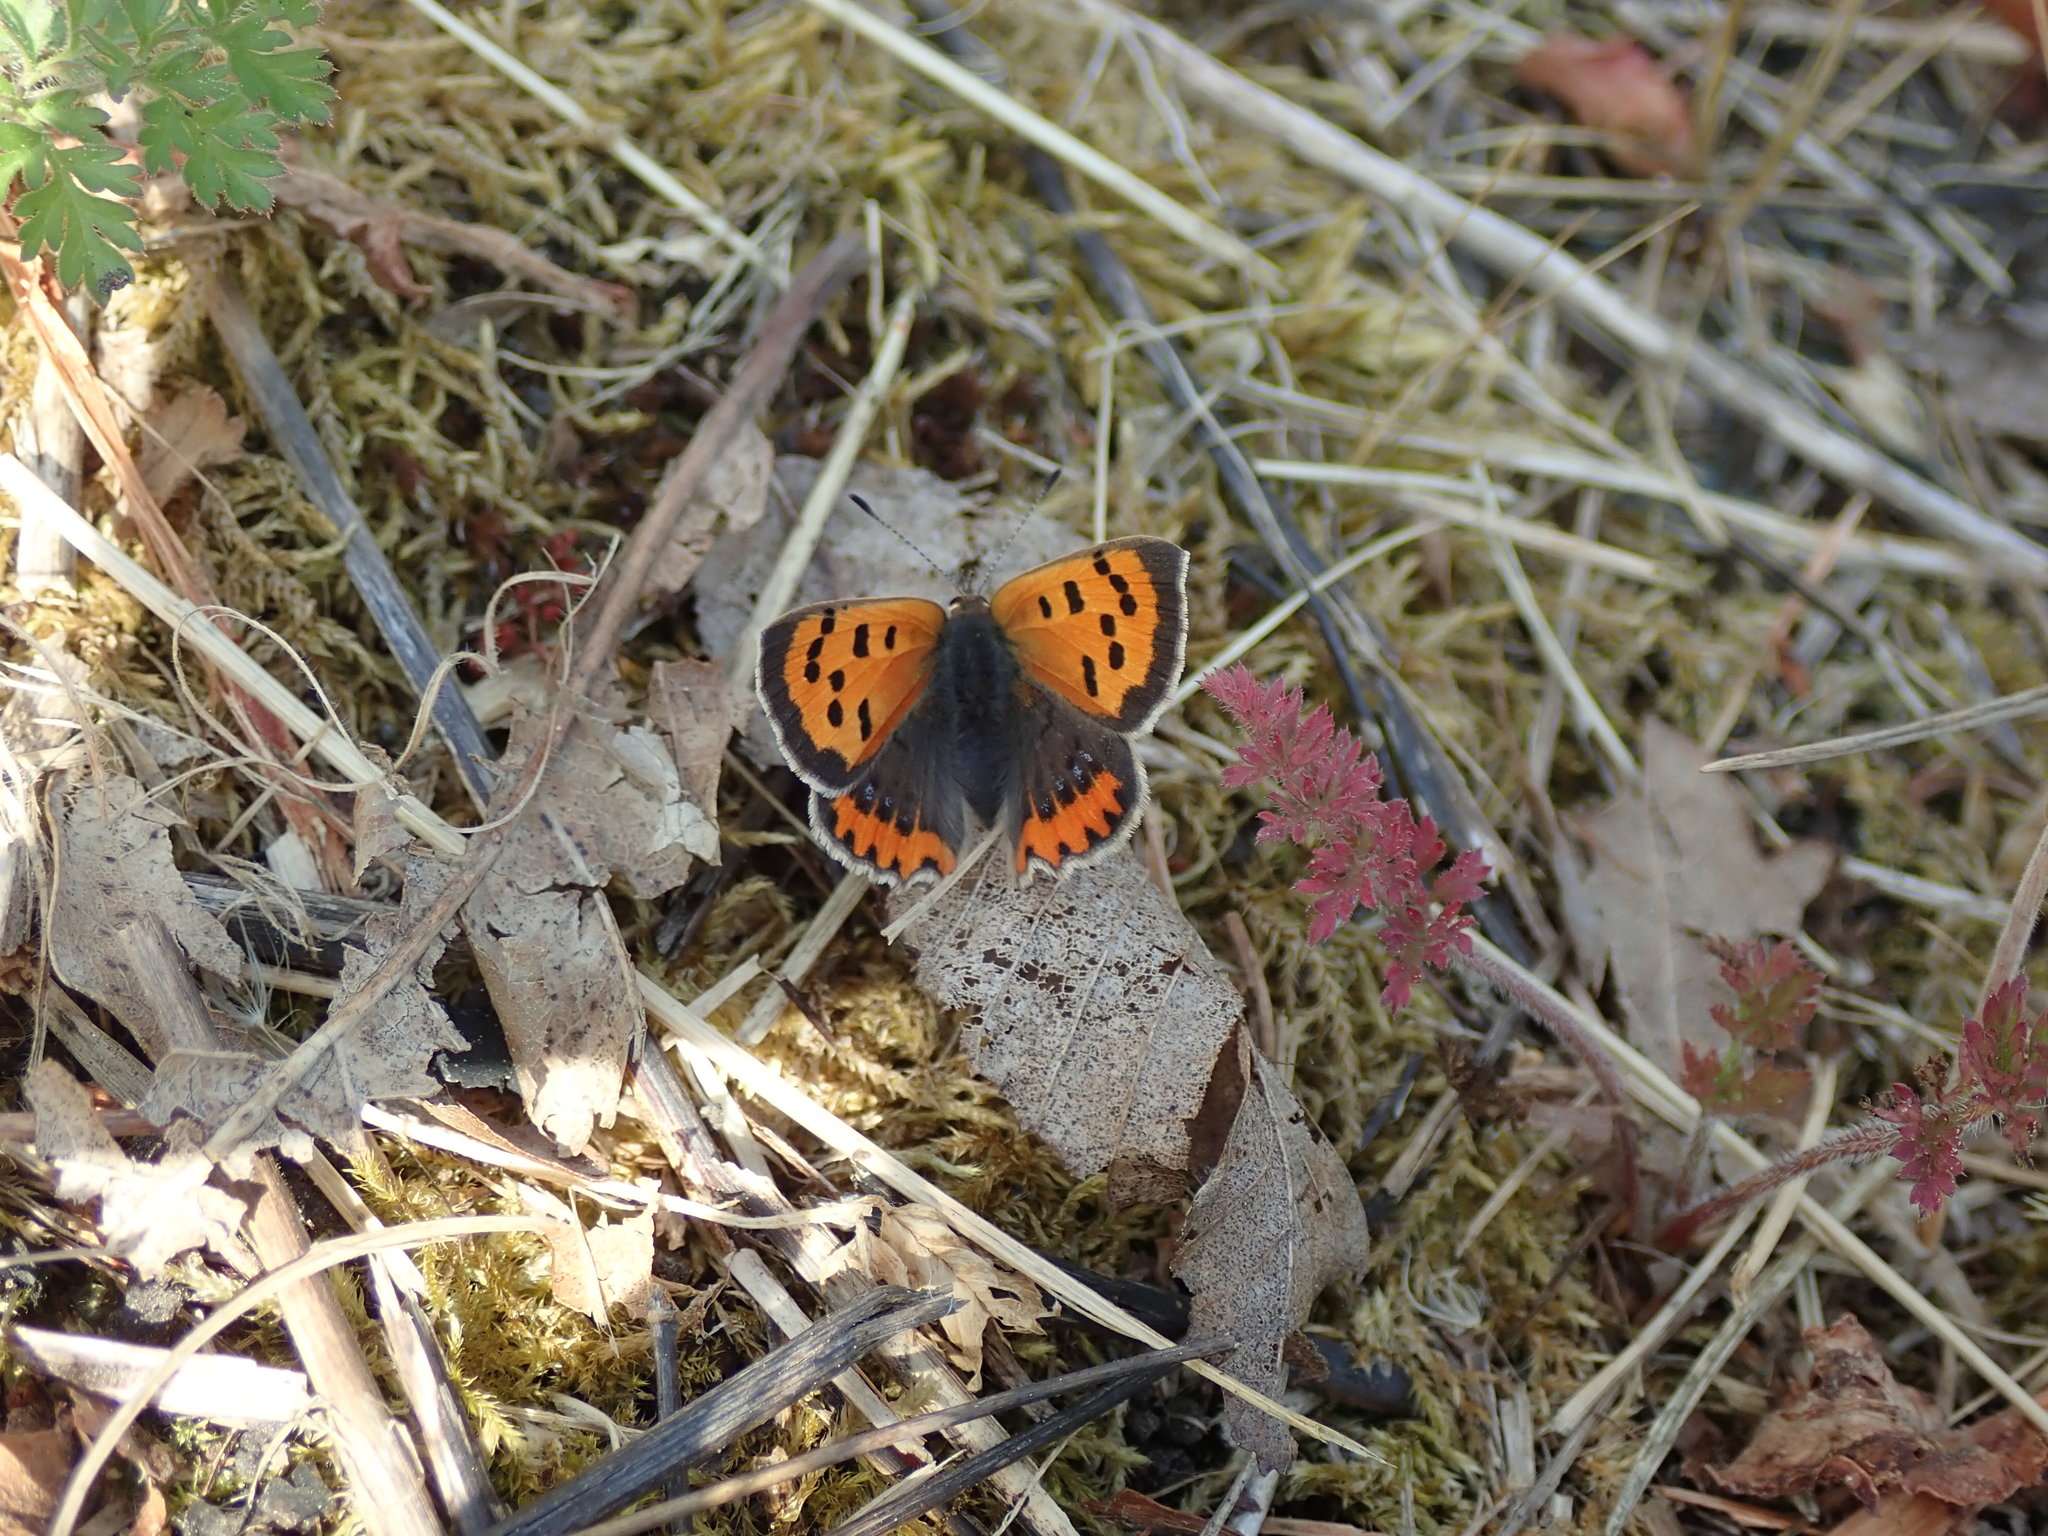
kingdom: Animalia
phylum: Arthropoda
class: Insecta
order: Lepidoptera
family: Lycaenidae
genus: Lycaena
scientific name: Lycaena phlaeas
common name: Small copper
